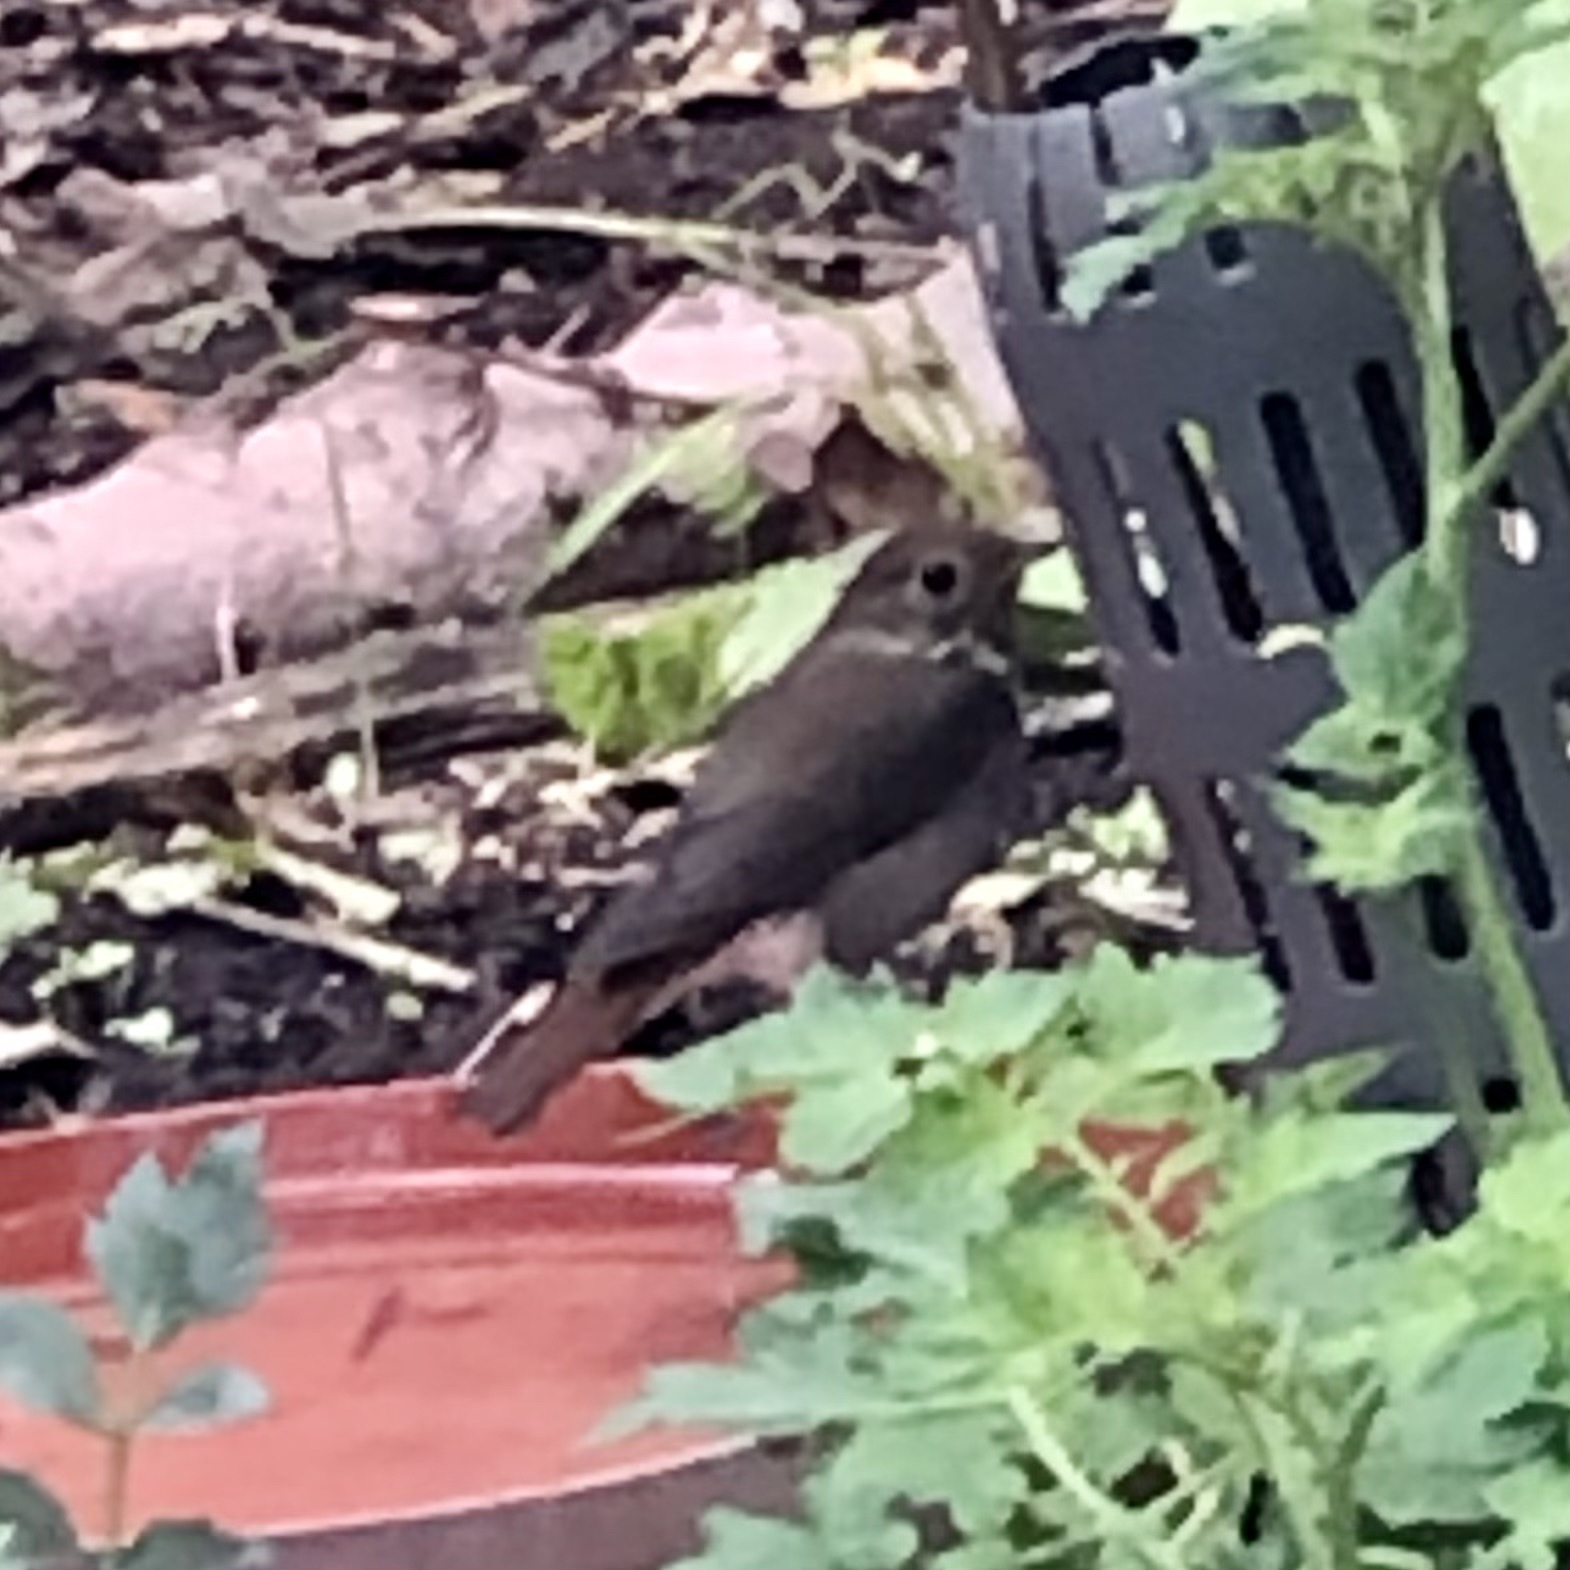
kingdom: Animalia
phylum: Chordata
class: Aves
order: Passeriformes
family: Turdidae
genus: Catharus
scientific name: Catharus guttatus
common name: Hermit thrush
